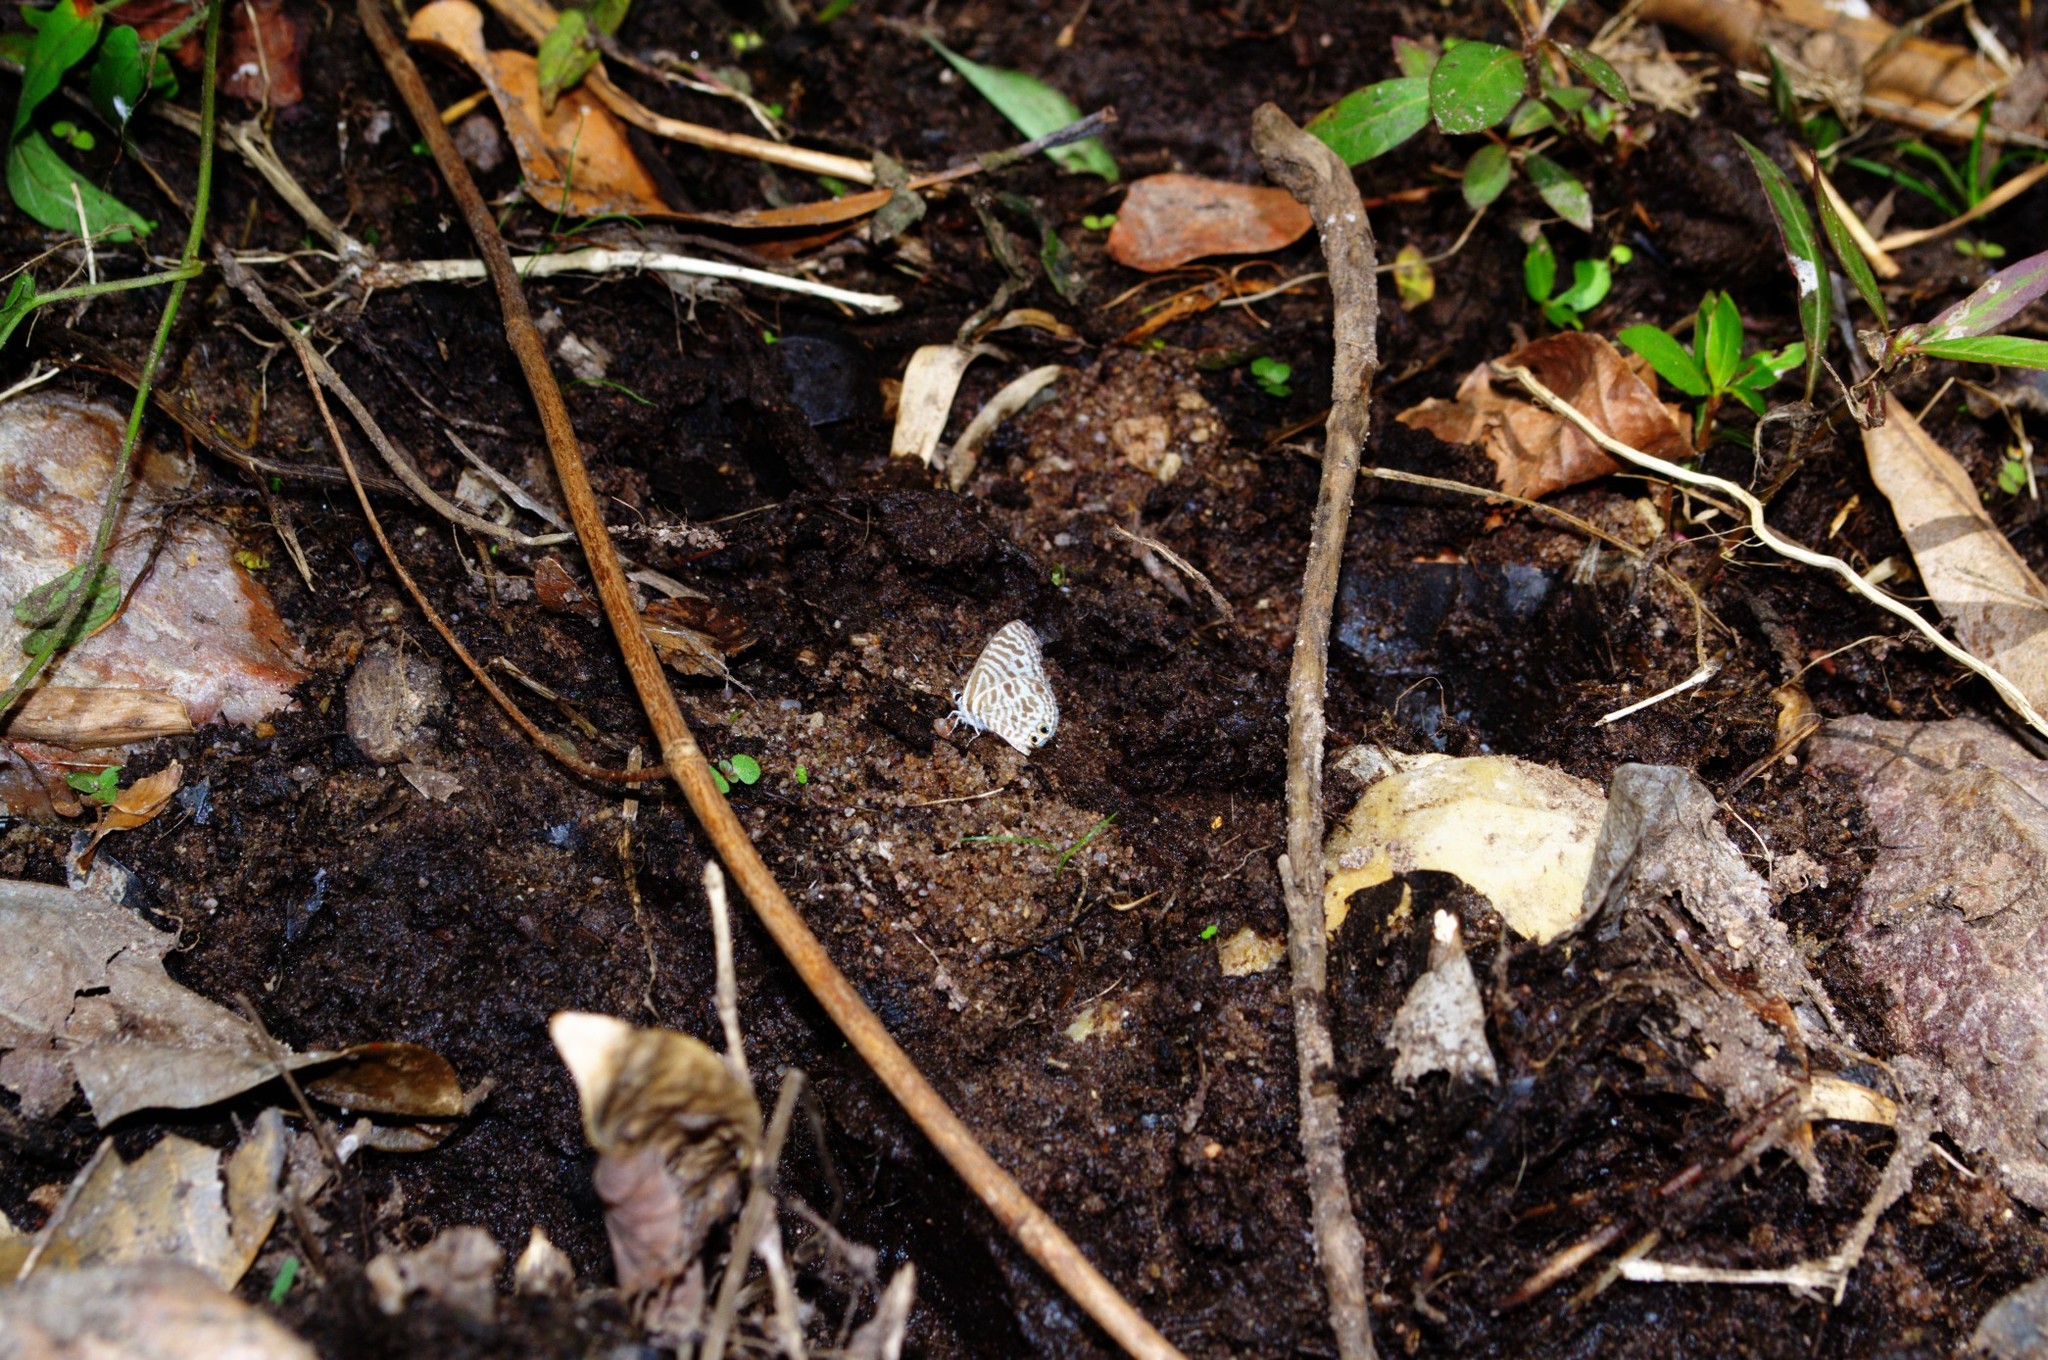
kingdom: Animalia
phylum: Arthropoda
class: Insecta
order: Lepidoptera
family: Lycaenidae
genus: Leptotes
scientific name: Leptotes plinius
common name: Zebra blue
